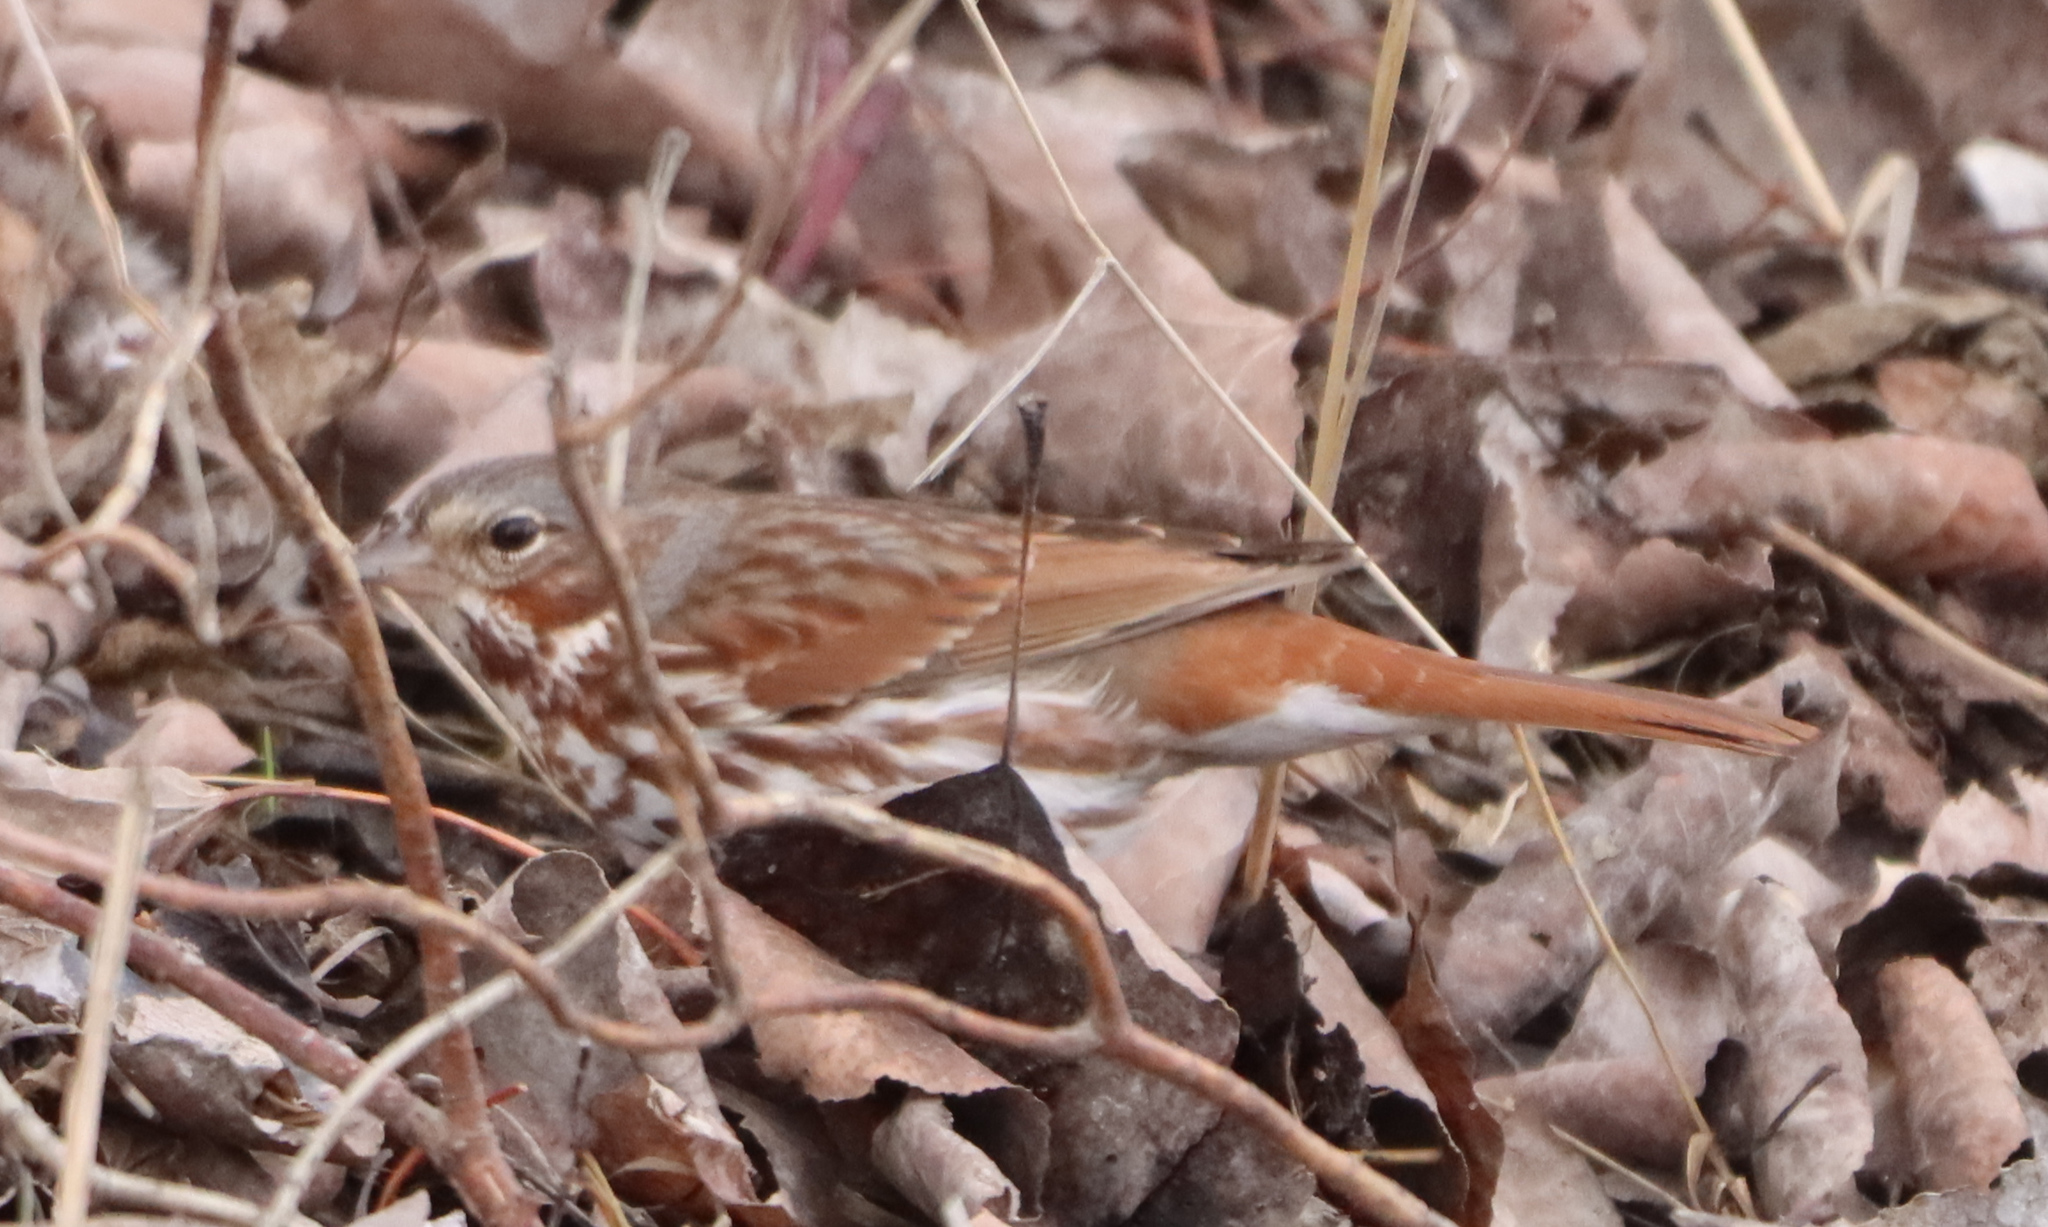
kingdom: Animalia
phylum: Chordata
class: Aves
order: Passeriformes
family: Passerellidae
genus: Passerella
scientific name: Passerella iliaca
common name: Fox sparrow
